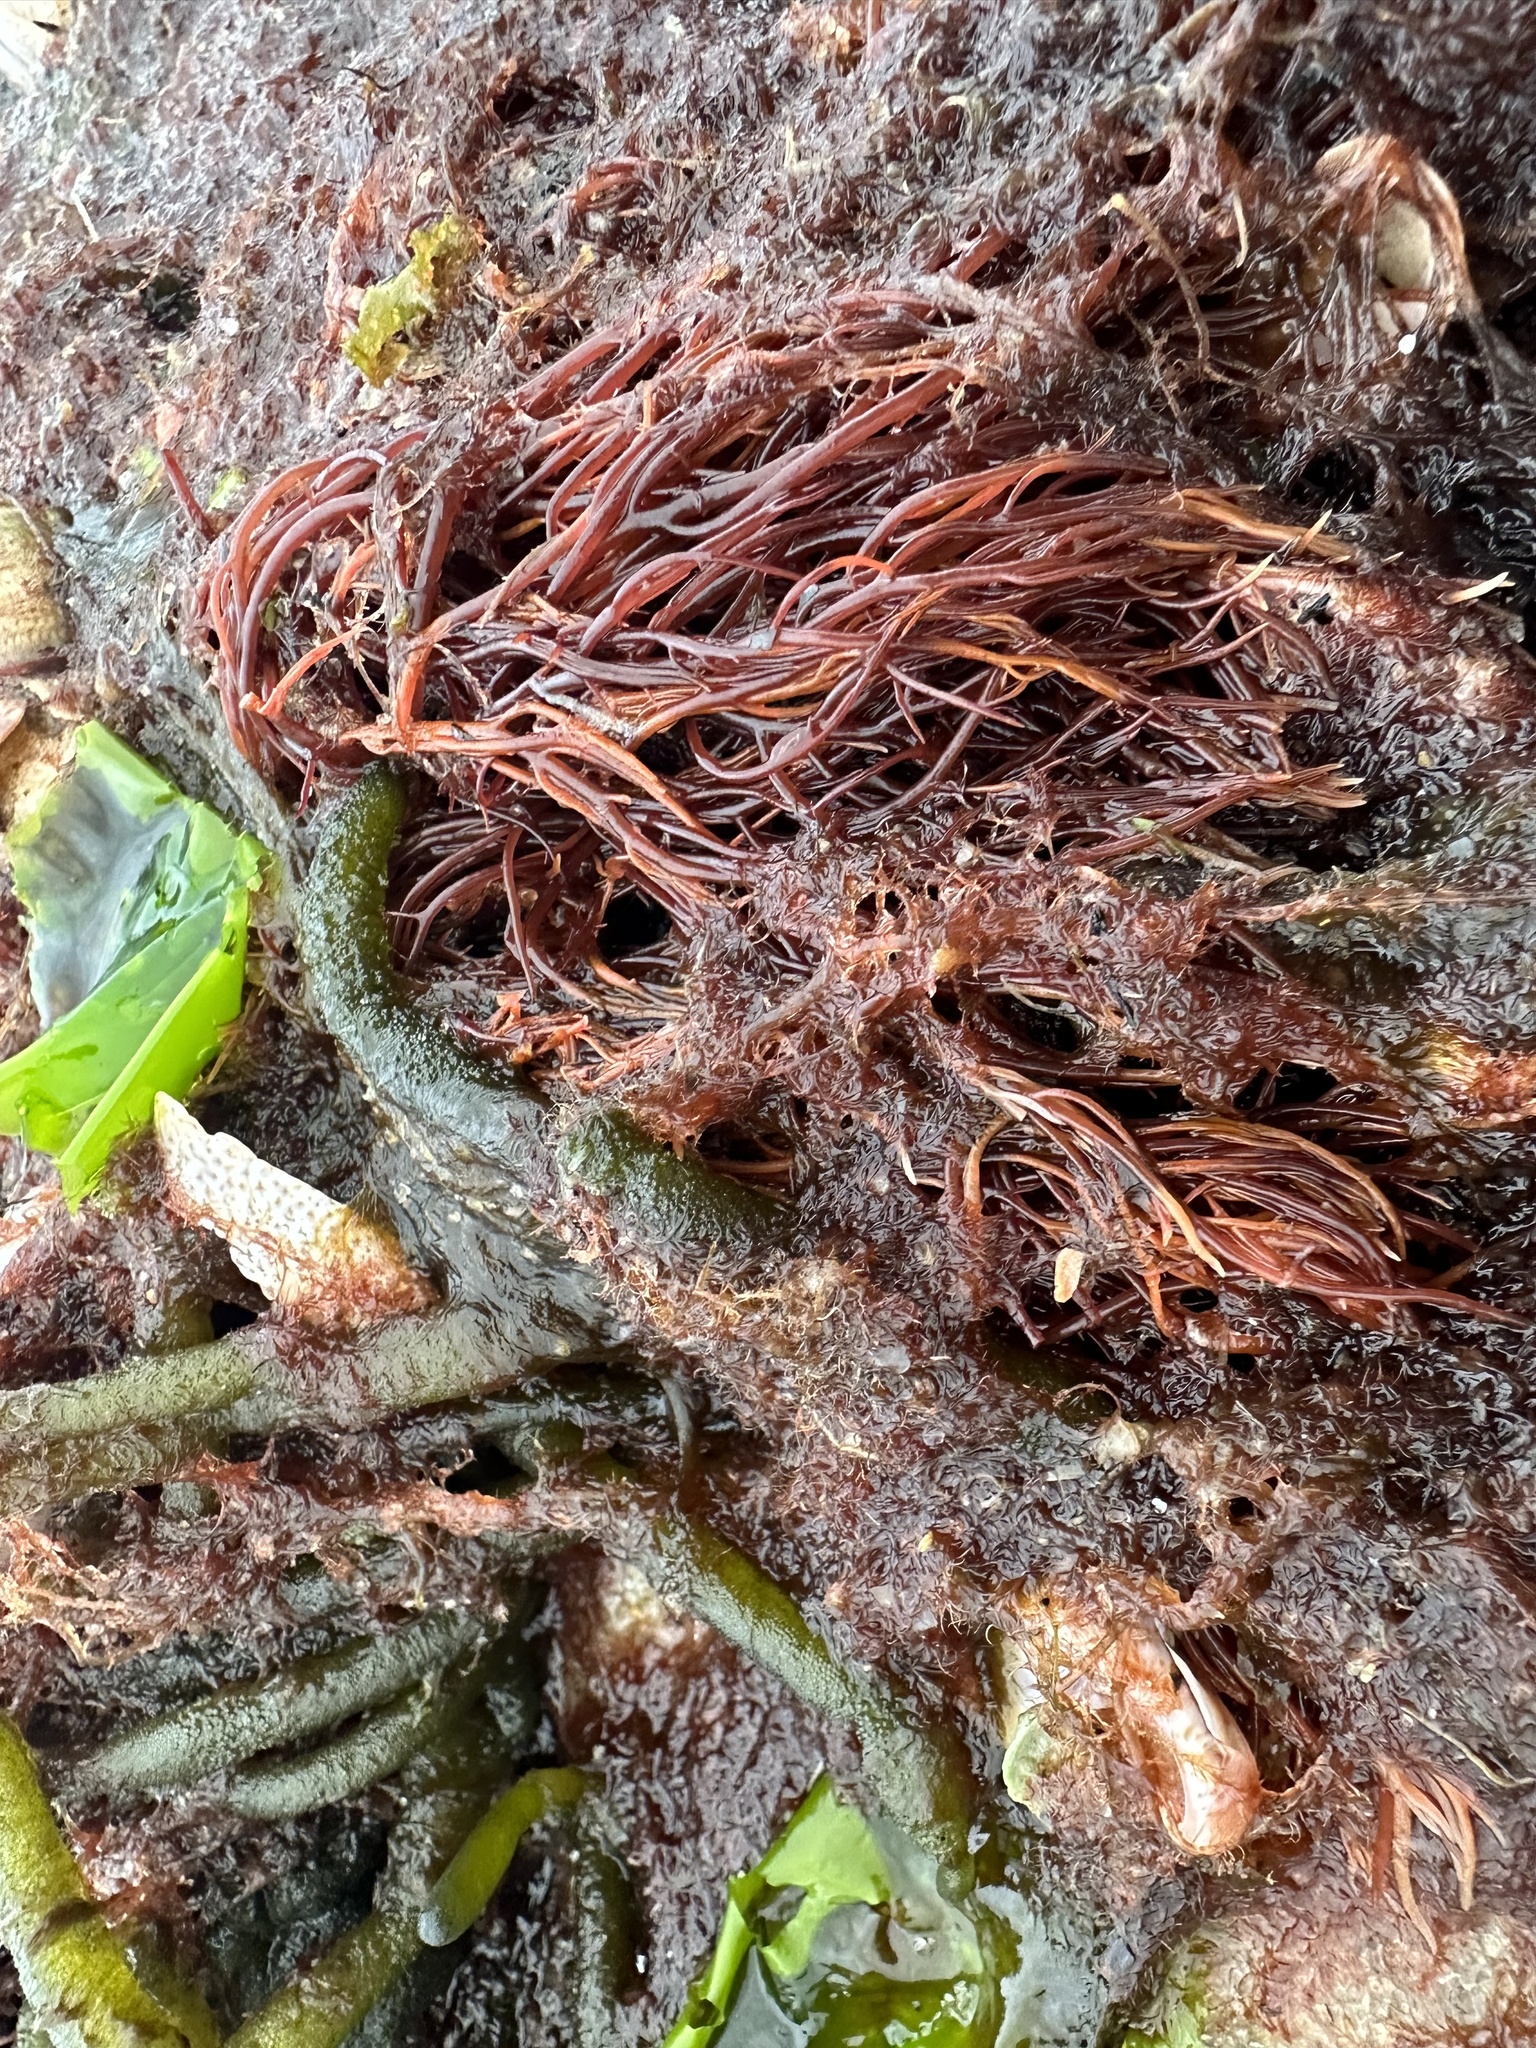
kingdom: Plantae
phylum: Rhodophyta
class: Florideophyceae
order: Gigartinales
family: Solieriaceae
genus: Agardhiella
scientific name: Agardhiella subulata
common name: Agardh's red weed
